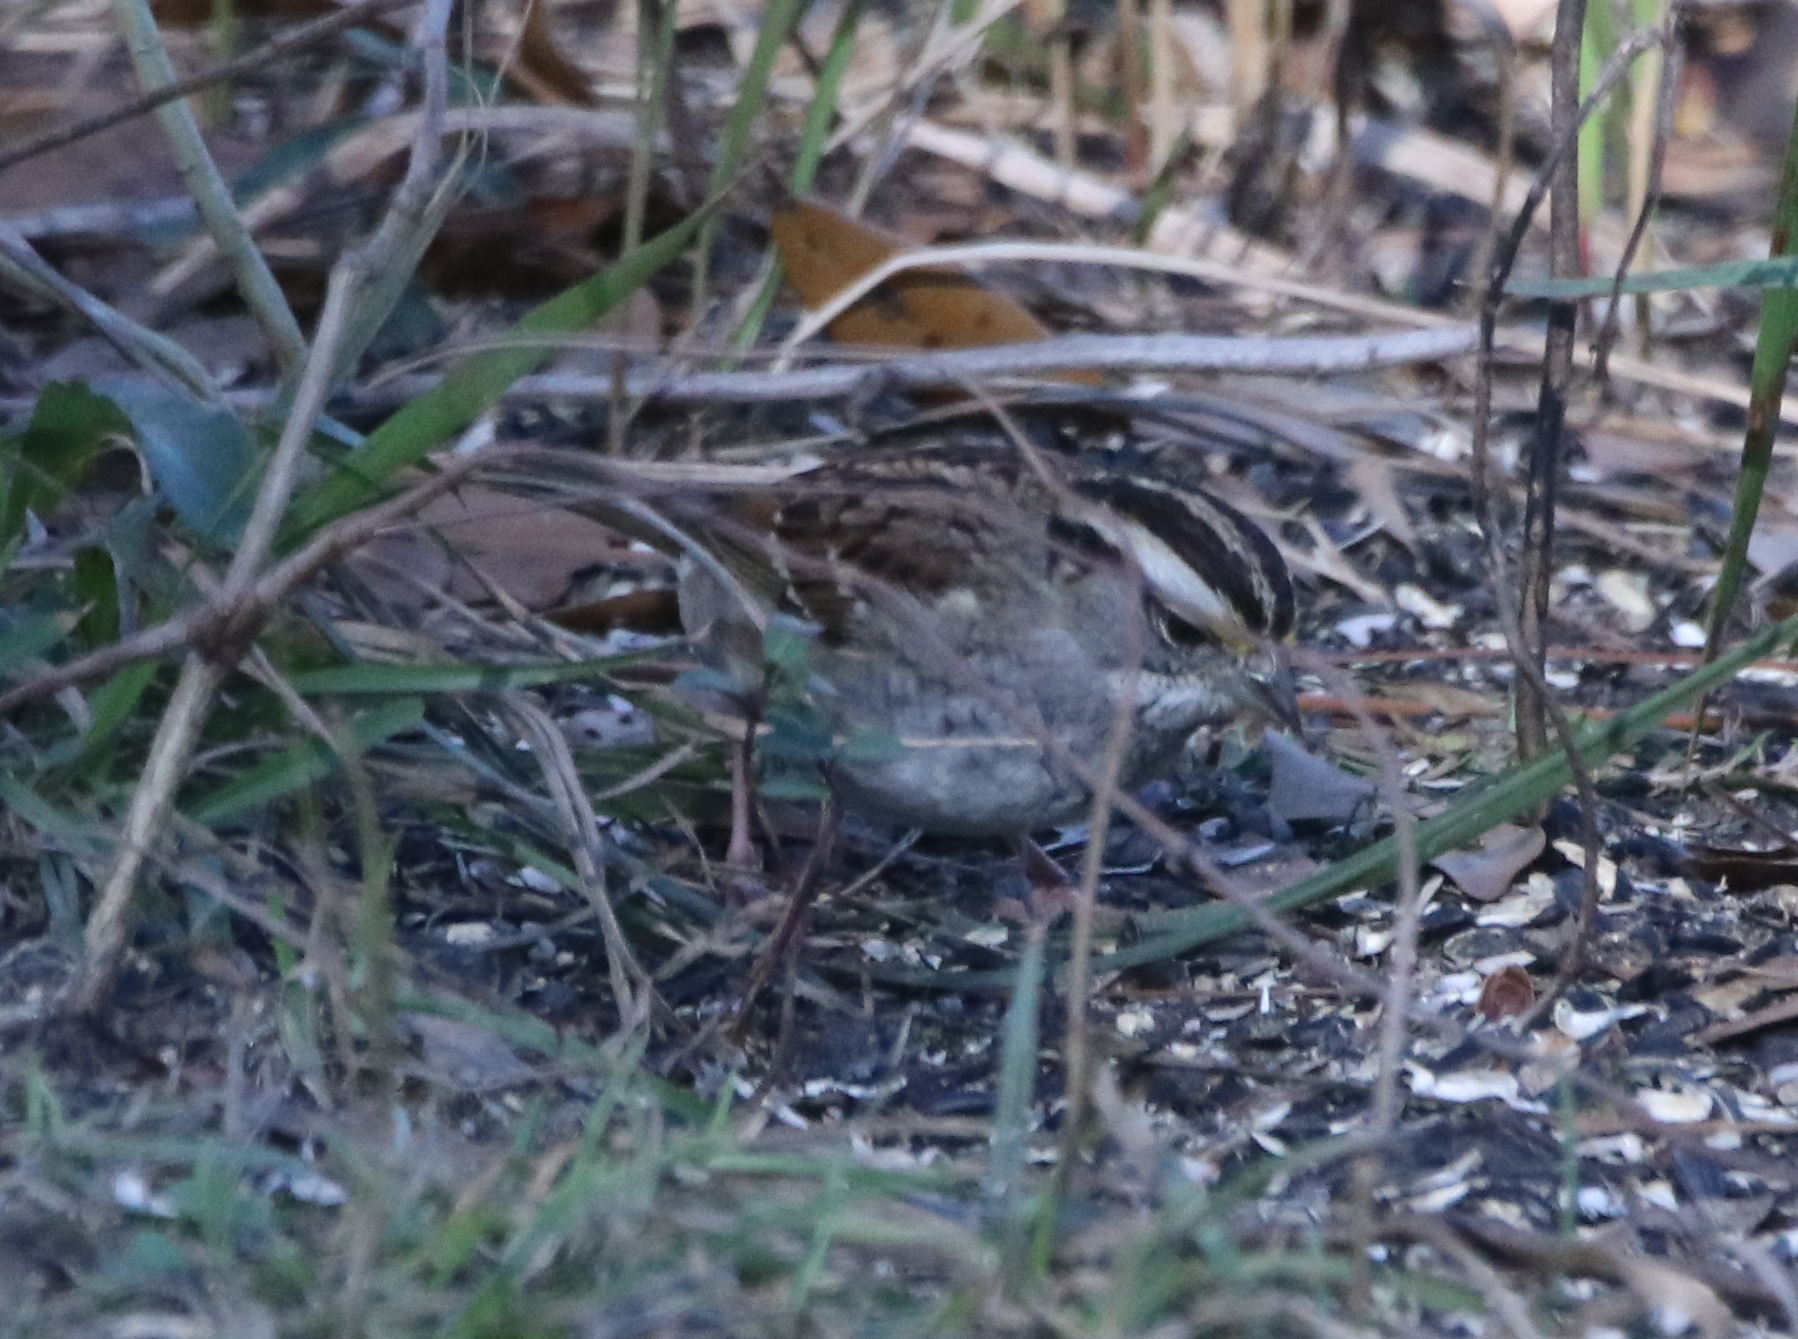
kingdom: Animalia
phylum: Chordata
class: Aves
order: Passeriformes
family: Passerellidae
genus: Zonotrichia
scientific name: Zonotrichia albicollis
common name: White-throated sparrow
